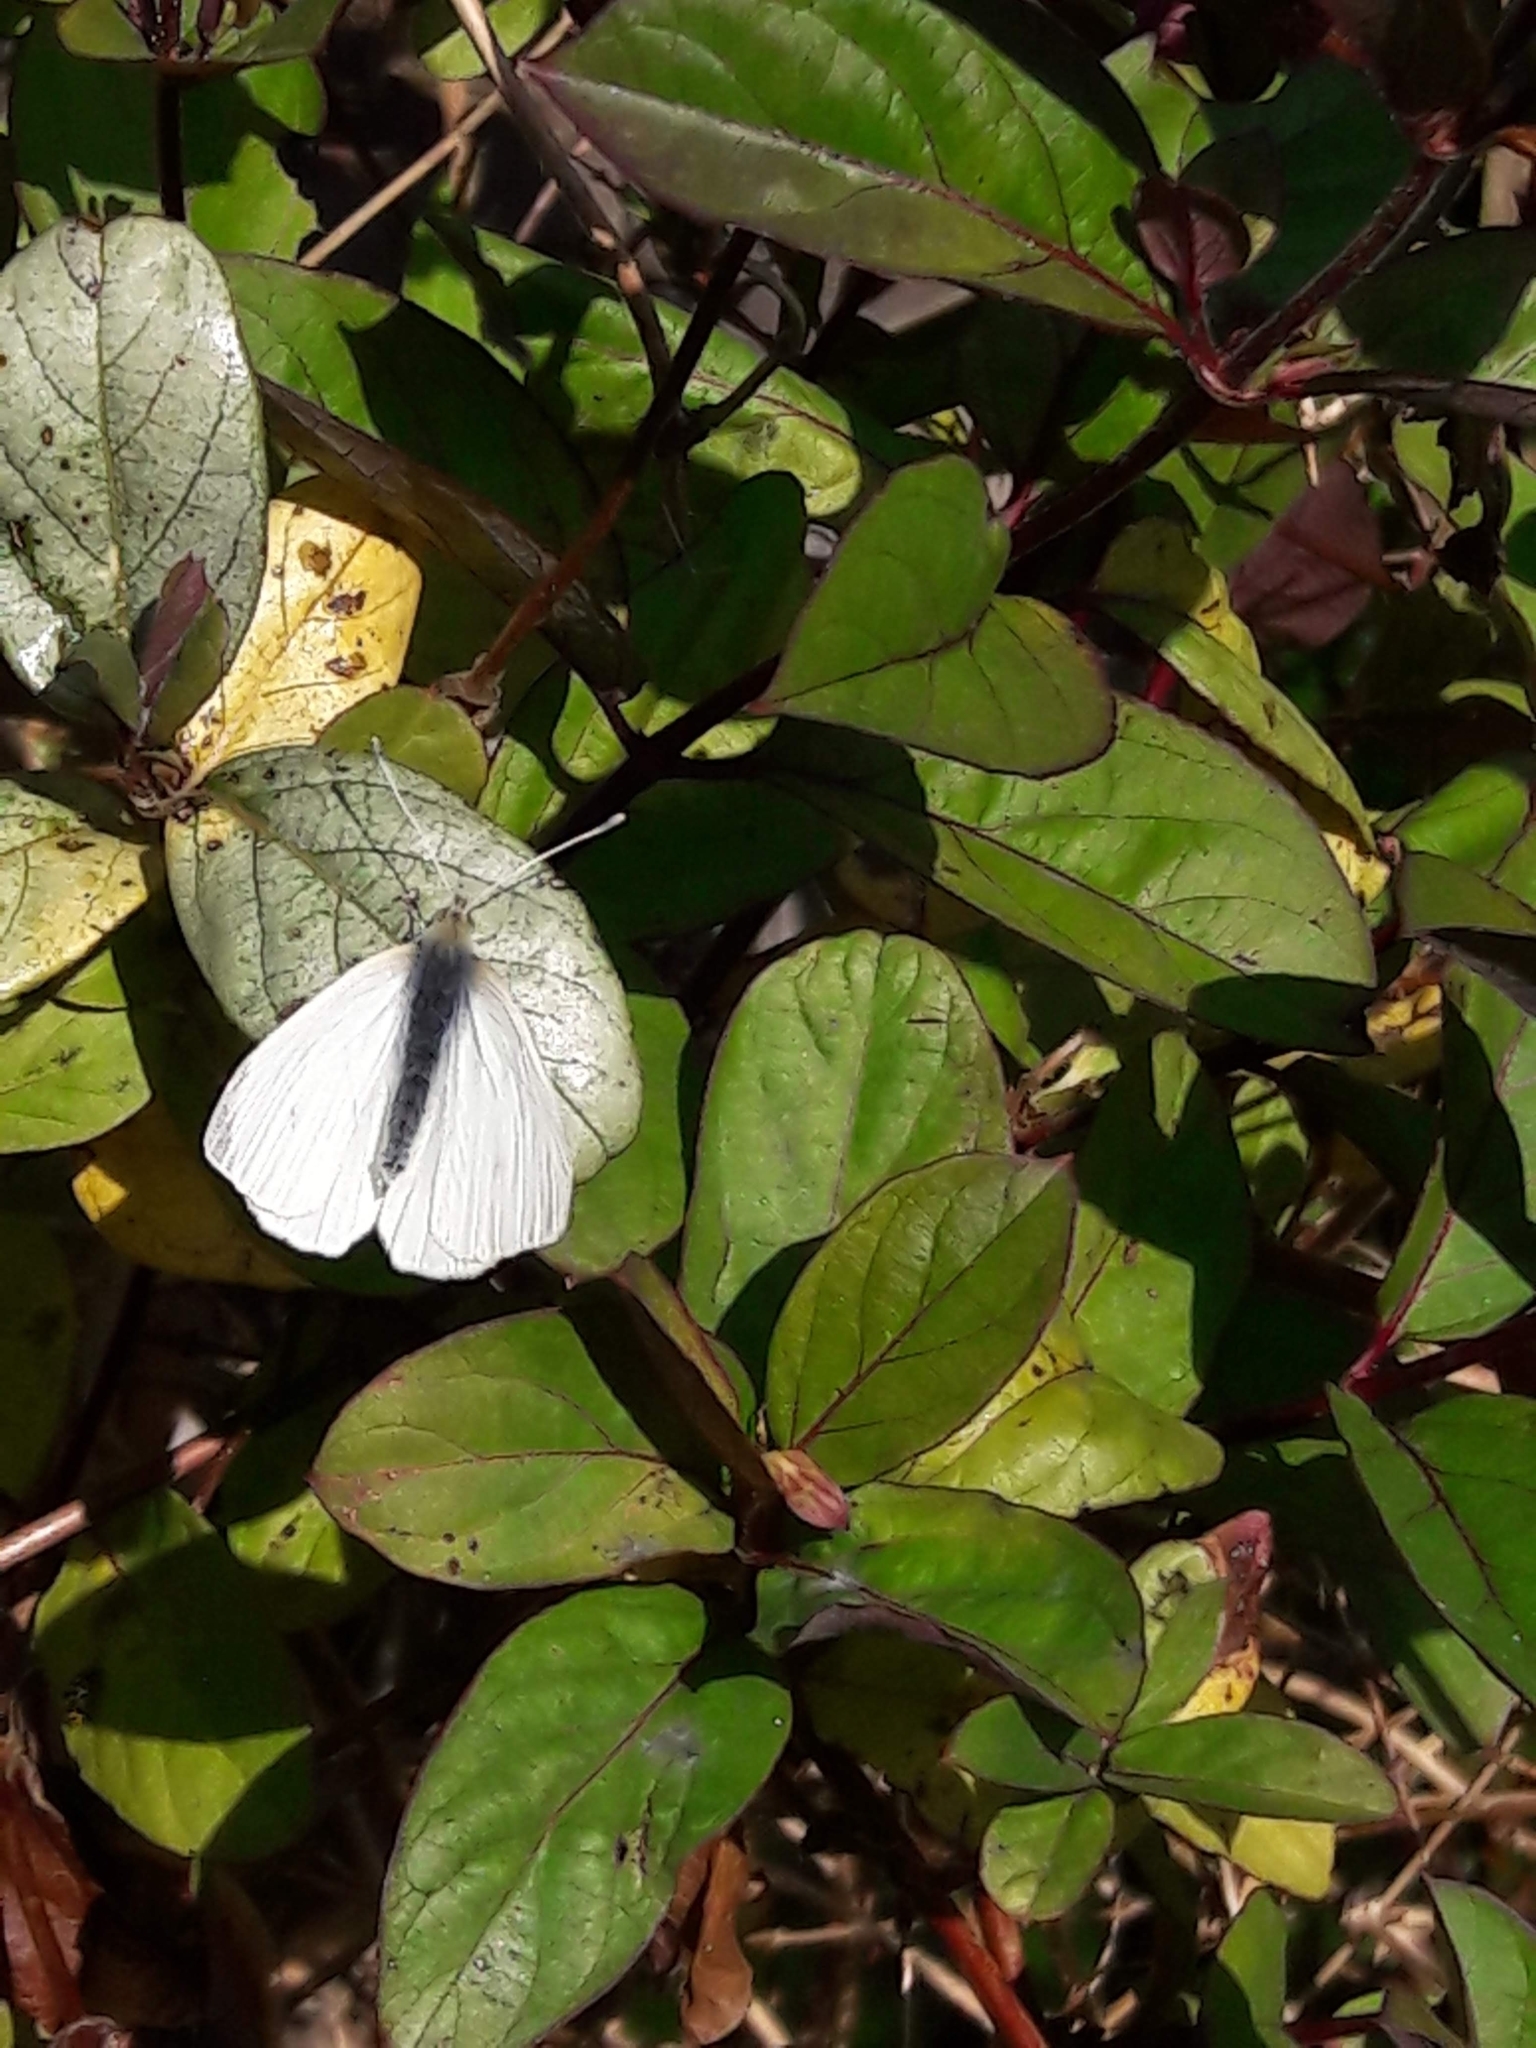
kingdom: Animalia
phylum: Arthropoda
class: Insecta
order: Lepidoptera
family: Pieridae
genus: Pieris
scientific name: Pieris napi
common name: Green-veined white
